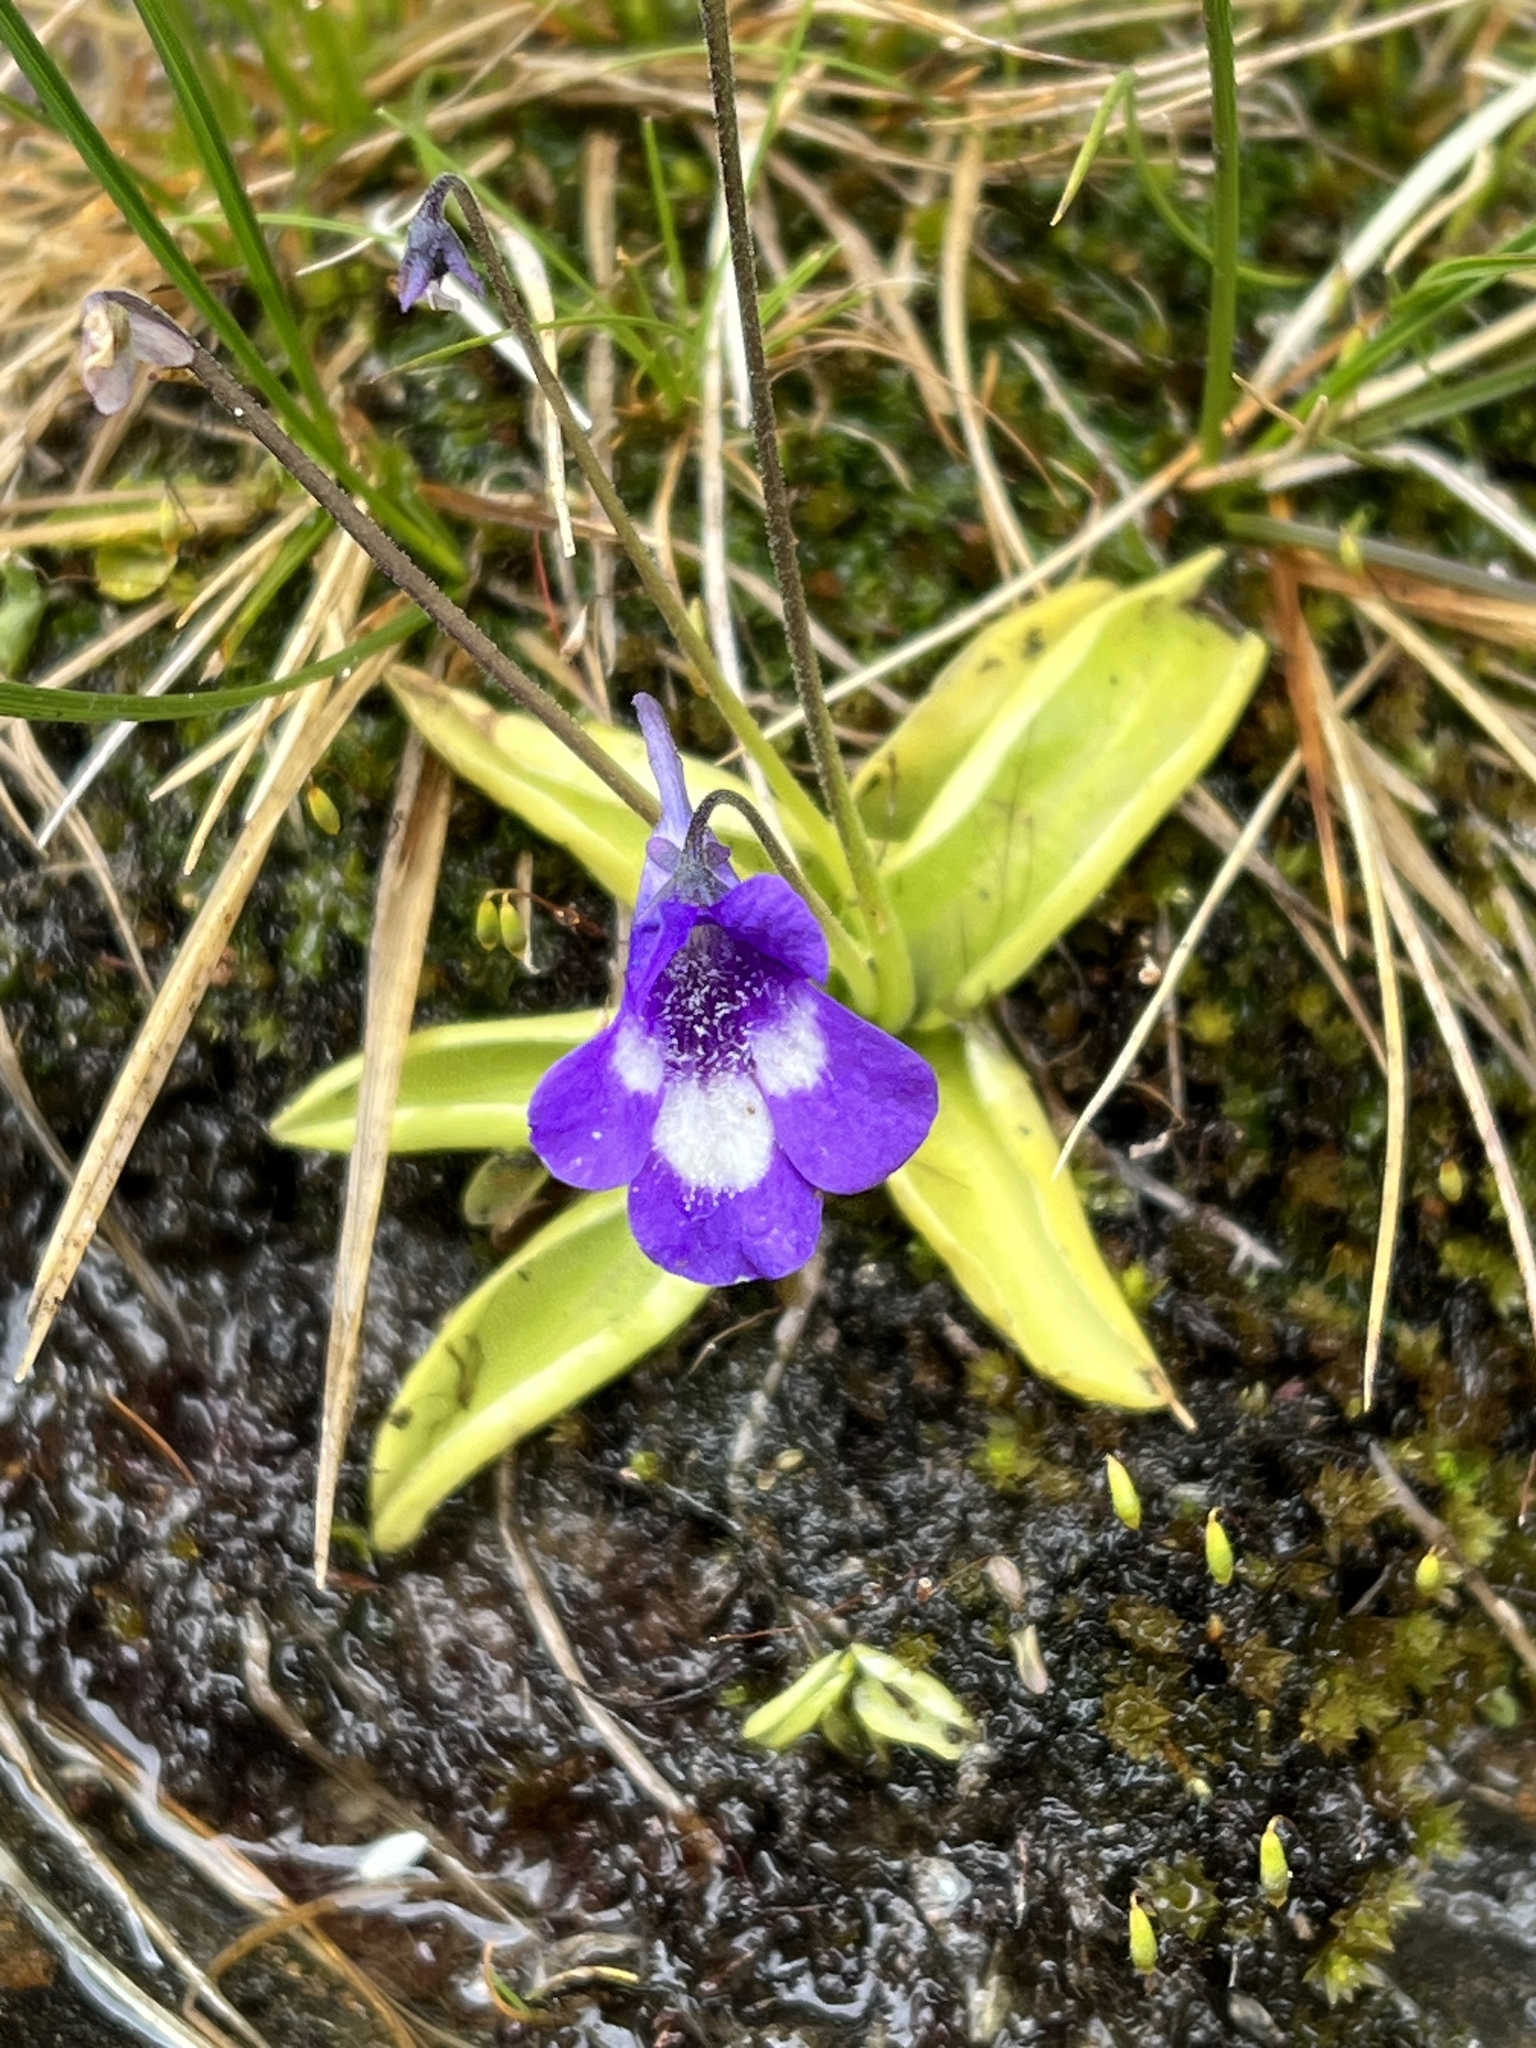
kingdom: Plantae
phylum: Tracheophyta
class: Magnoliopsida
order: Lamiales
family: Lentibulariaceae
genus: Pinguicula
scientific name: Pinguicula leptoceras
